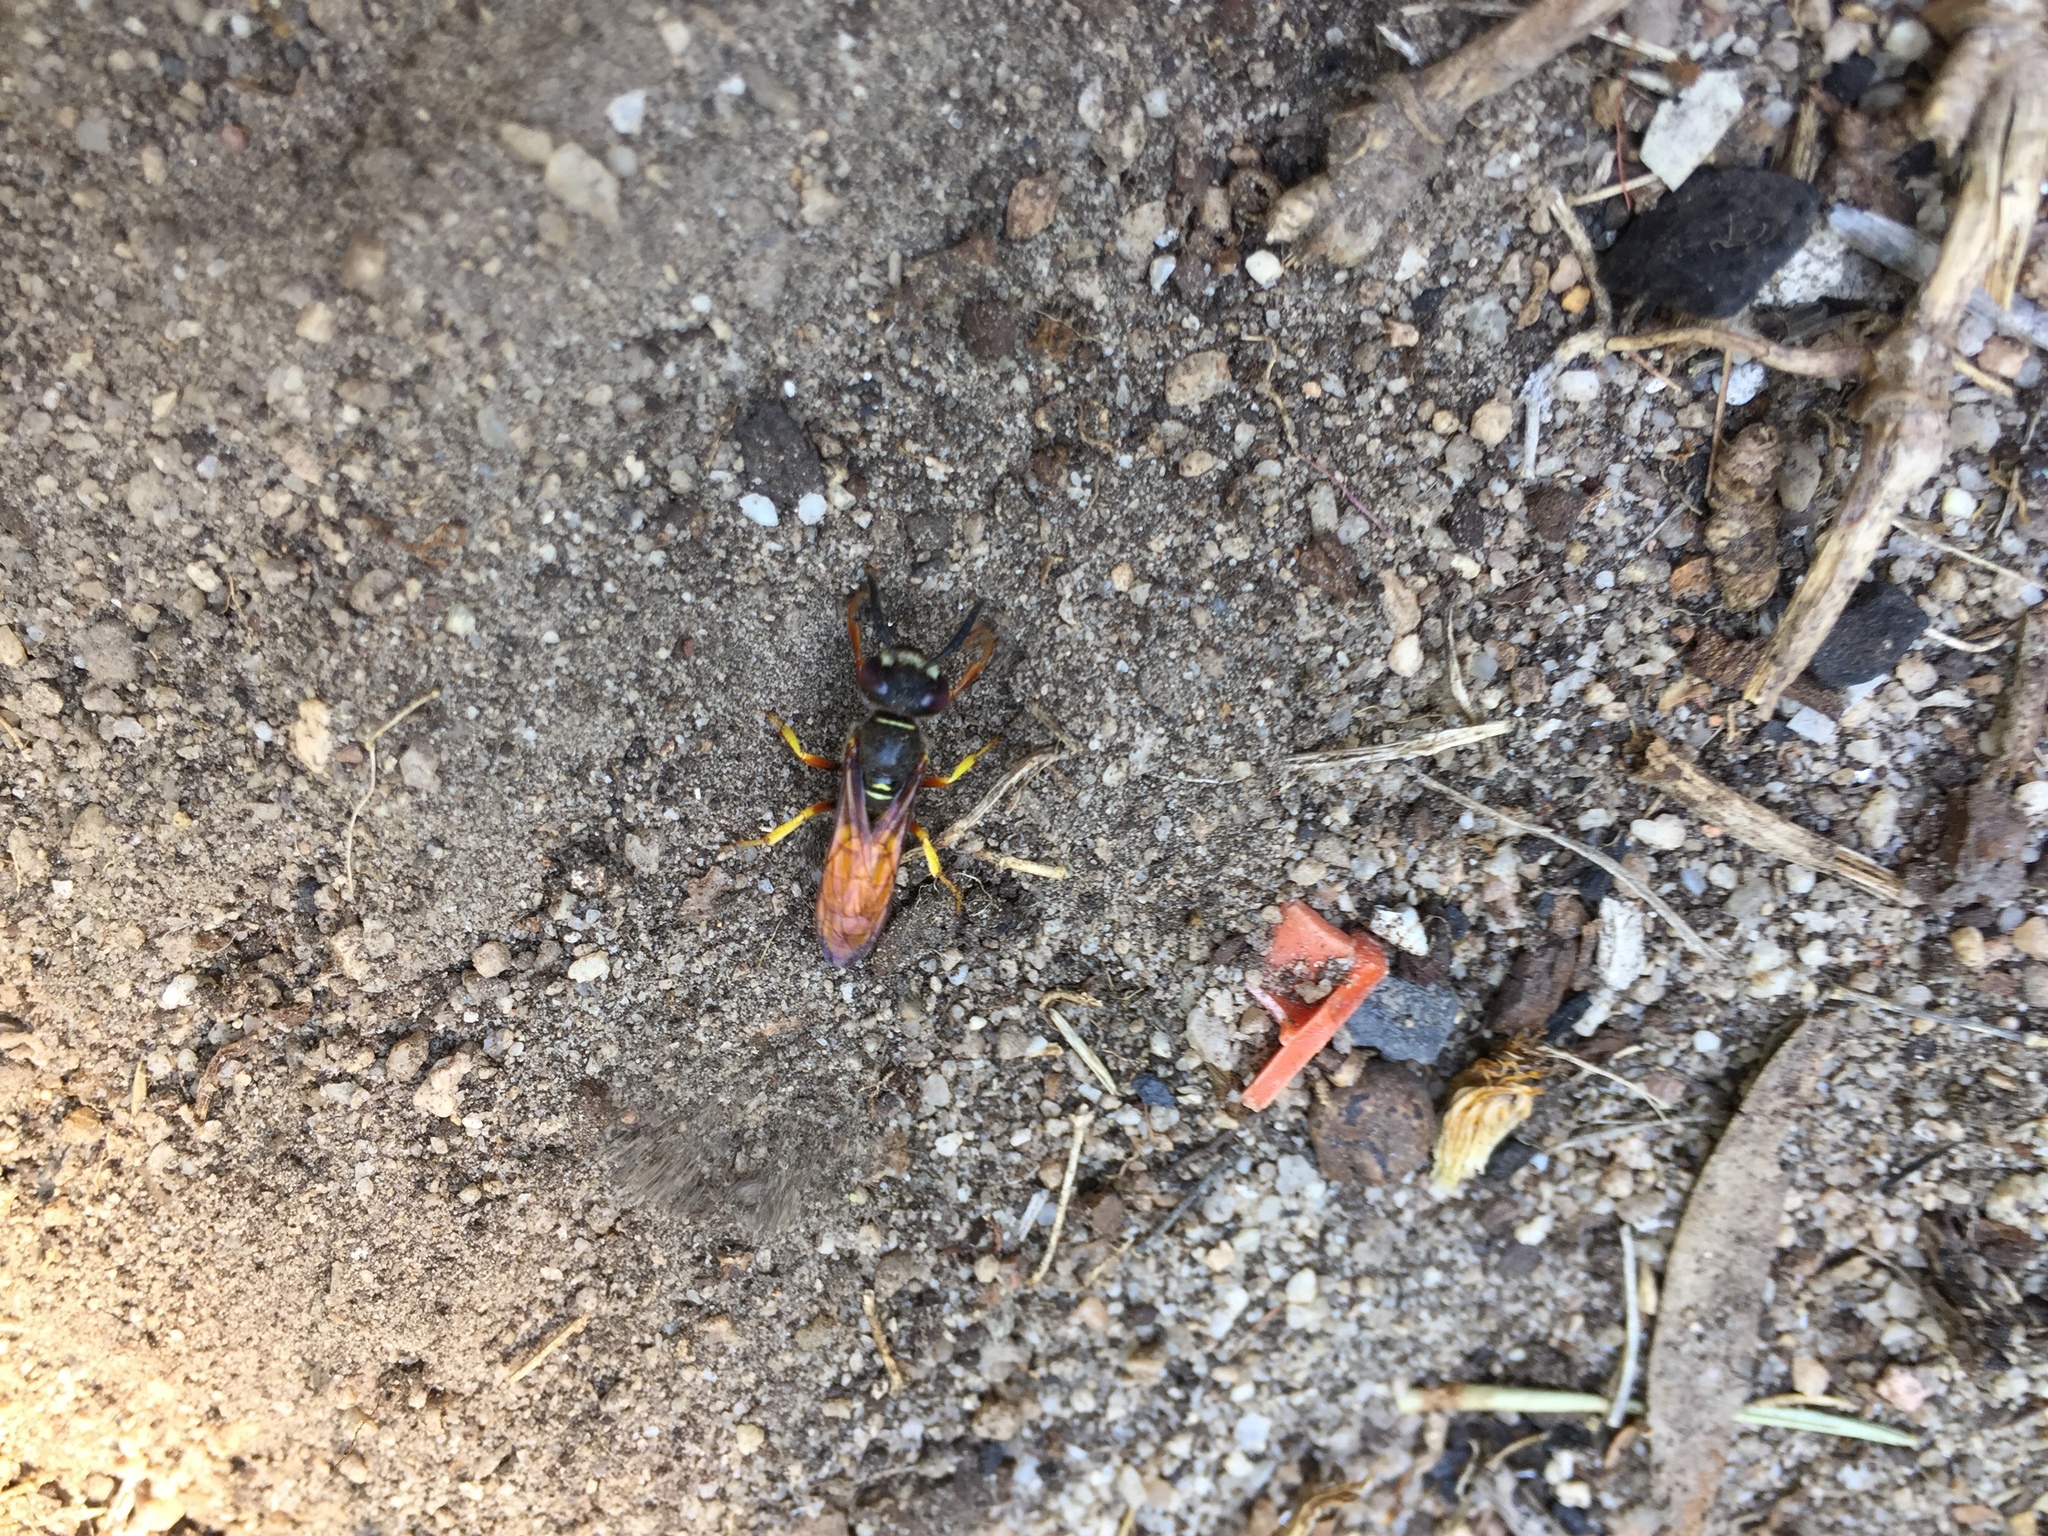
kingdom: Animalia
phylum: Arthropoda
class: Insecta
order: Hymenoptera
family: Crabronidae
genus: Philanthus
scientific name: Philanthus triangulum
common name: Bee wolf
